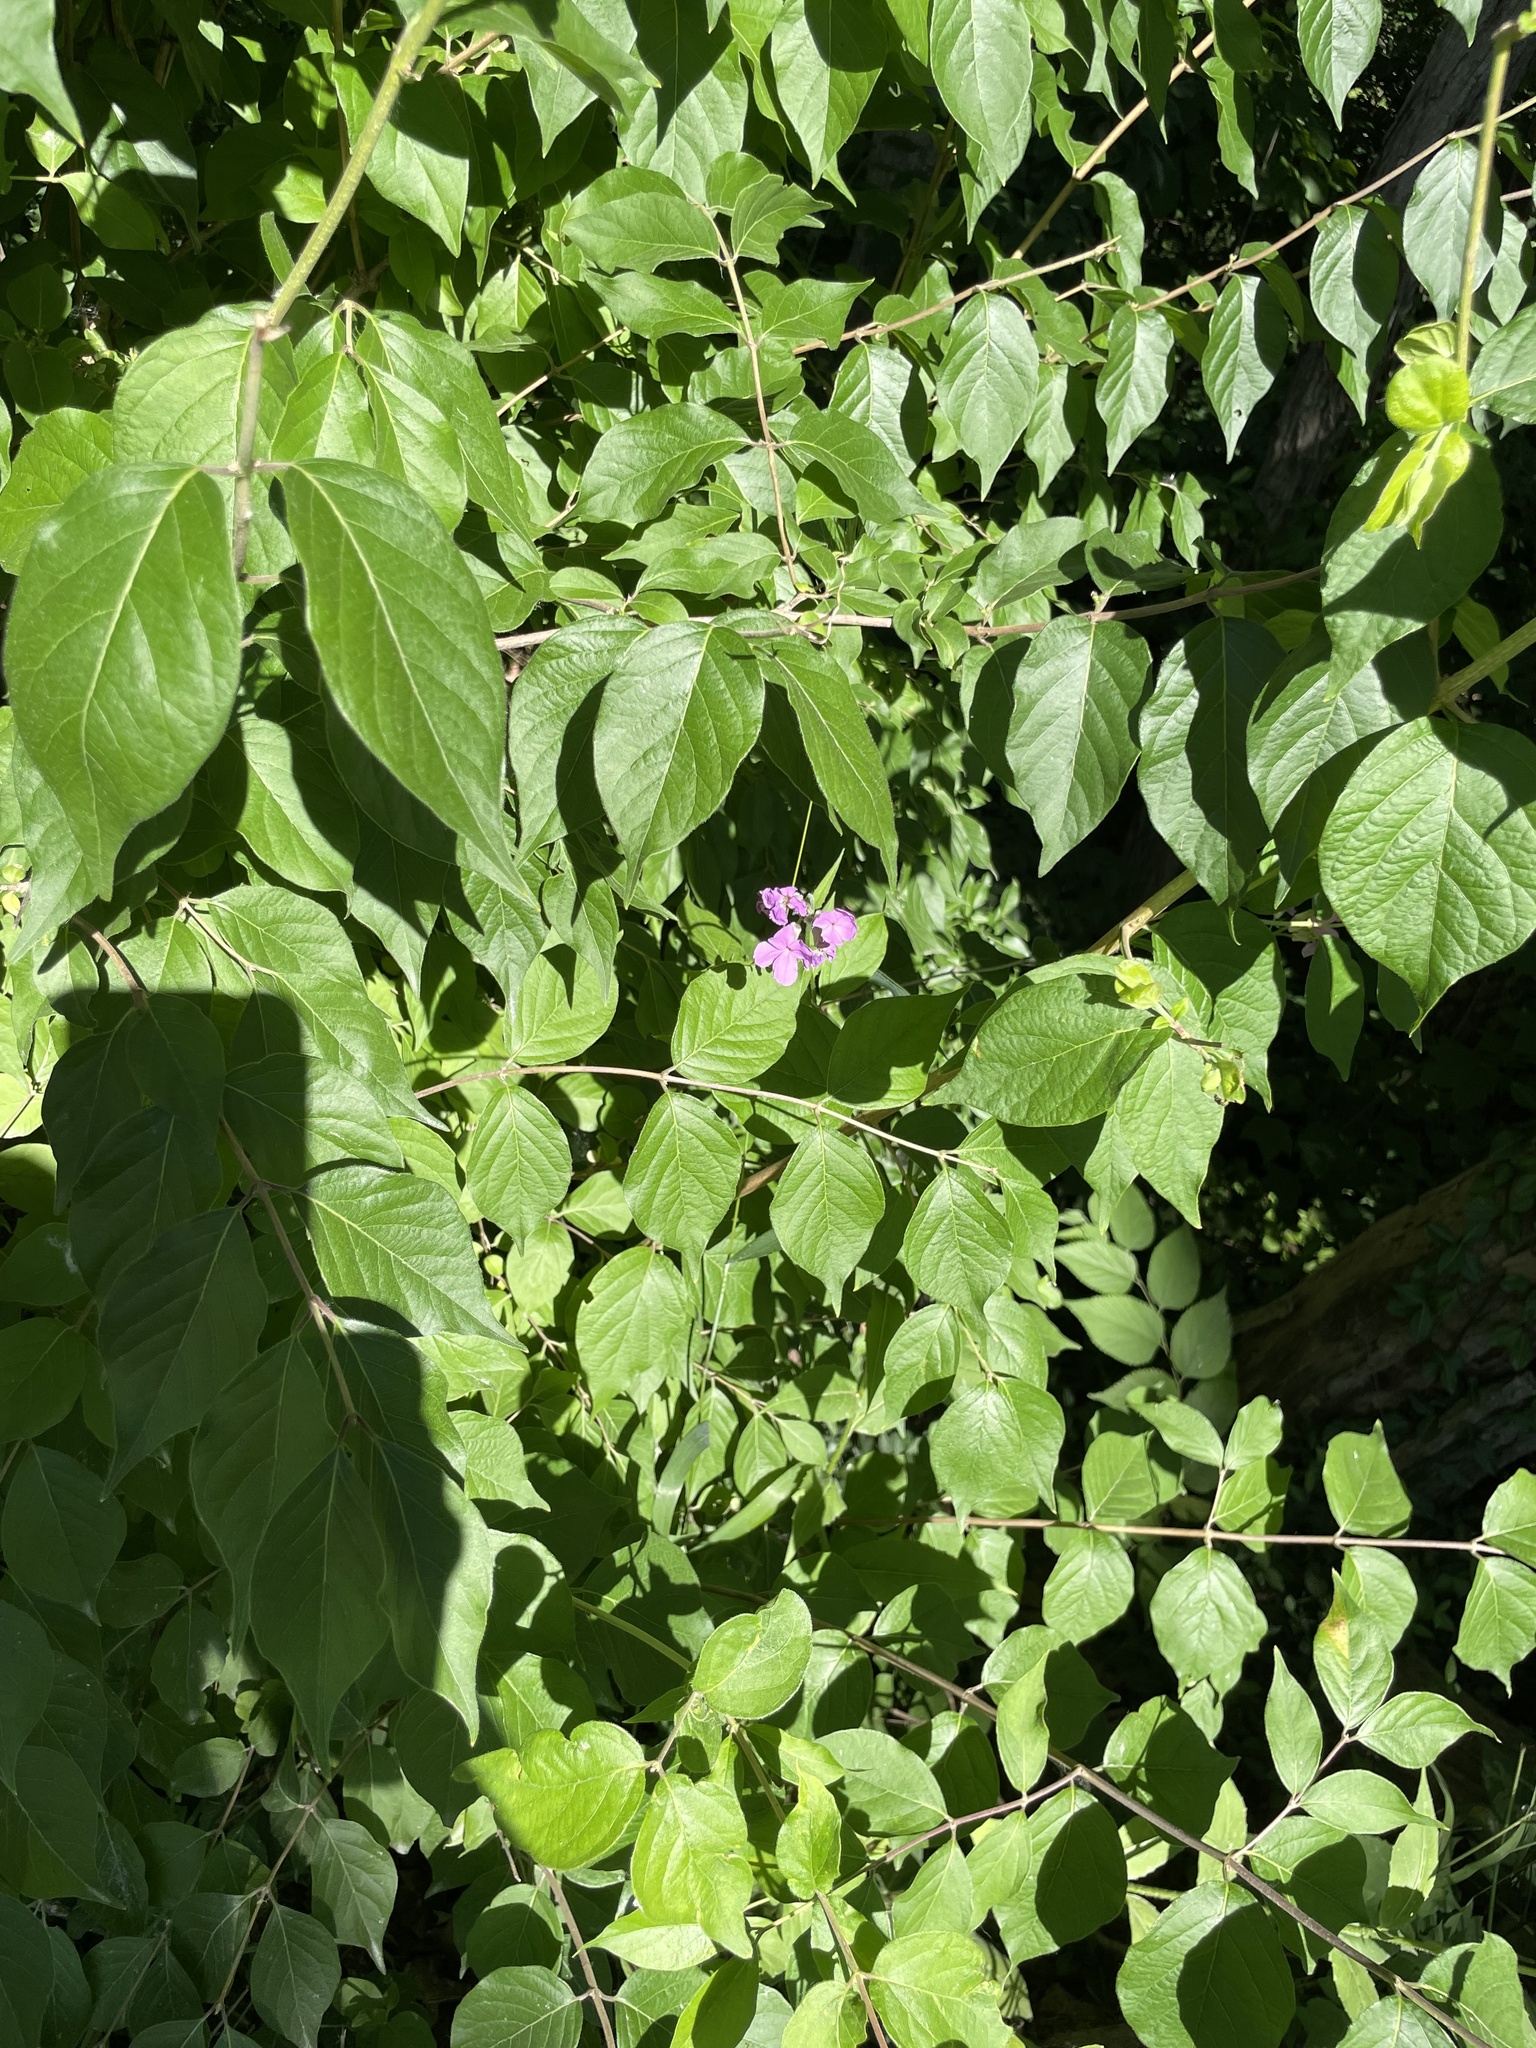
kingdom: Plantae
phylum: Tracheophyta
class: Magnoliopsida
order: Brassicales
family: Brassicaceae
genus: Hesperis
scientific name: Hesperis matronalis
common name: Dame's-violet
